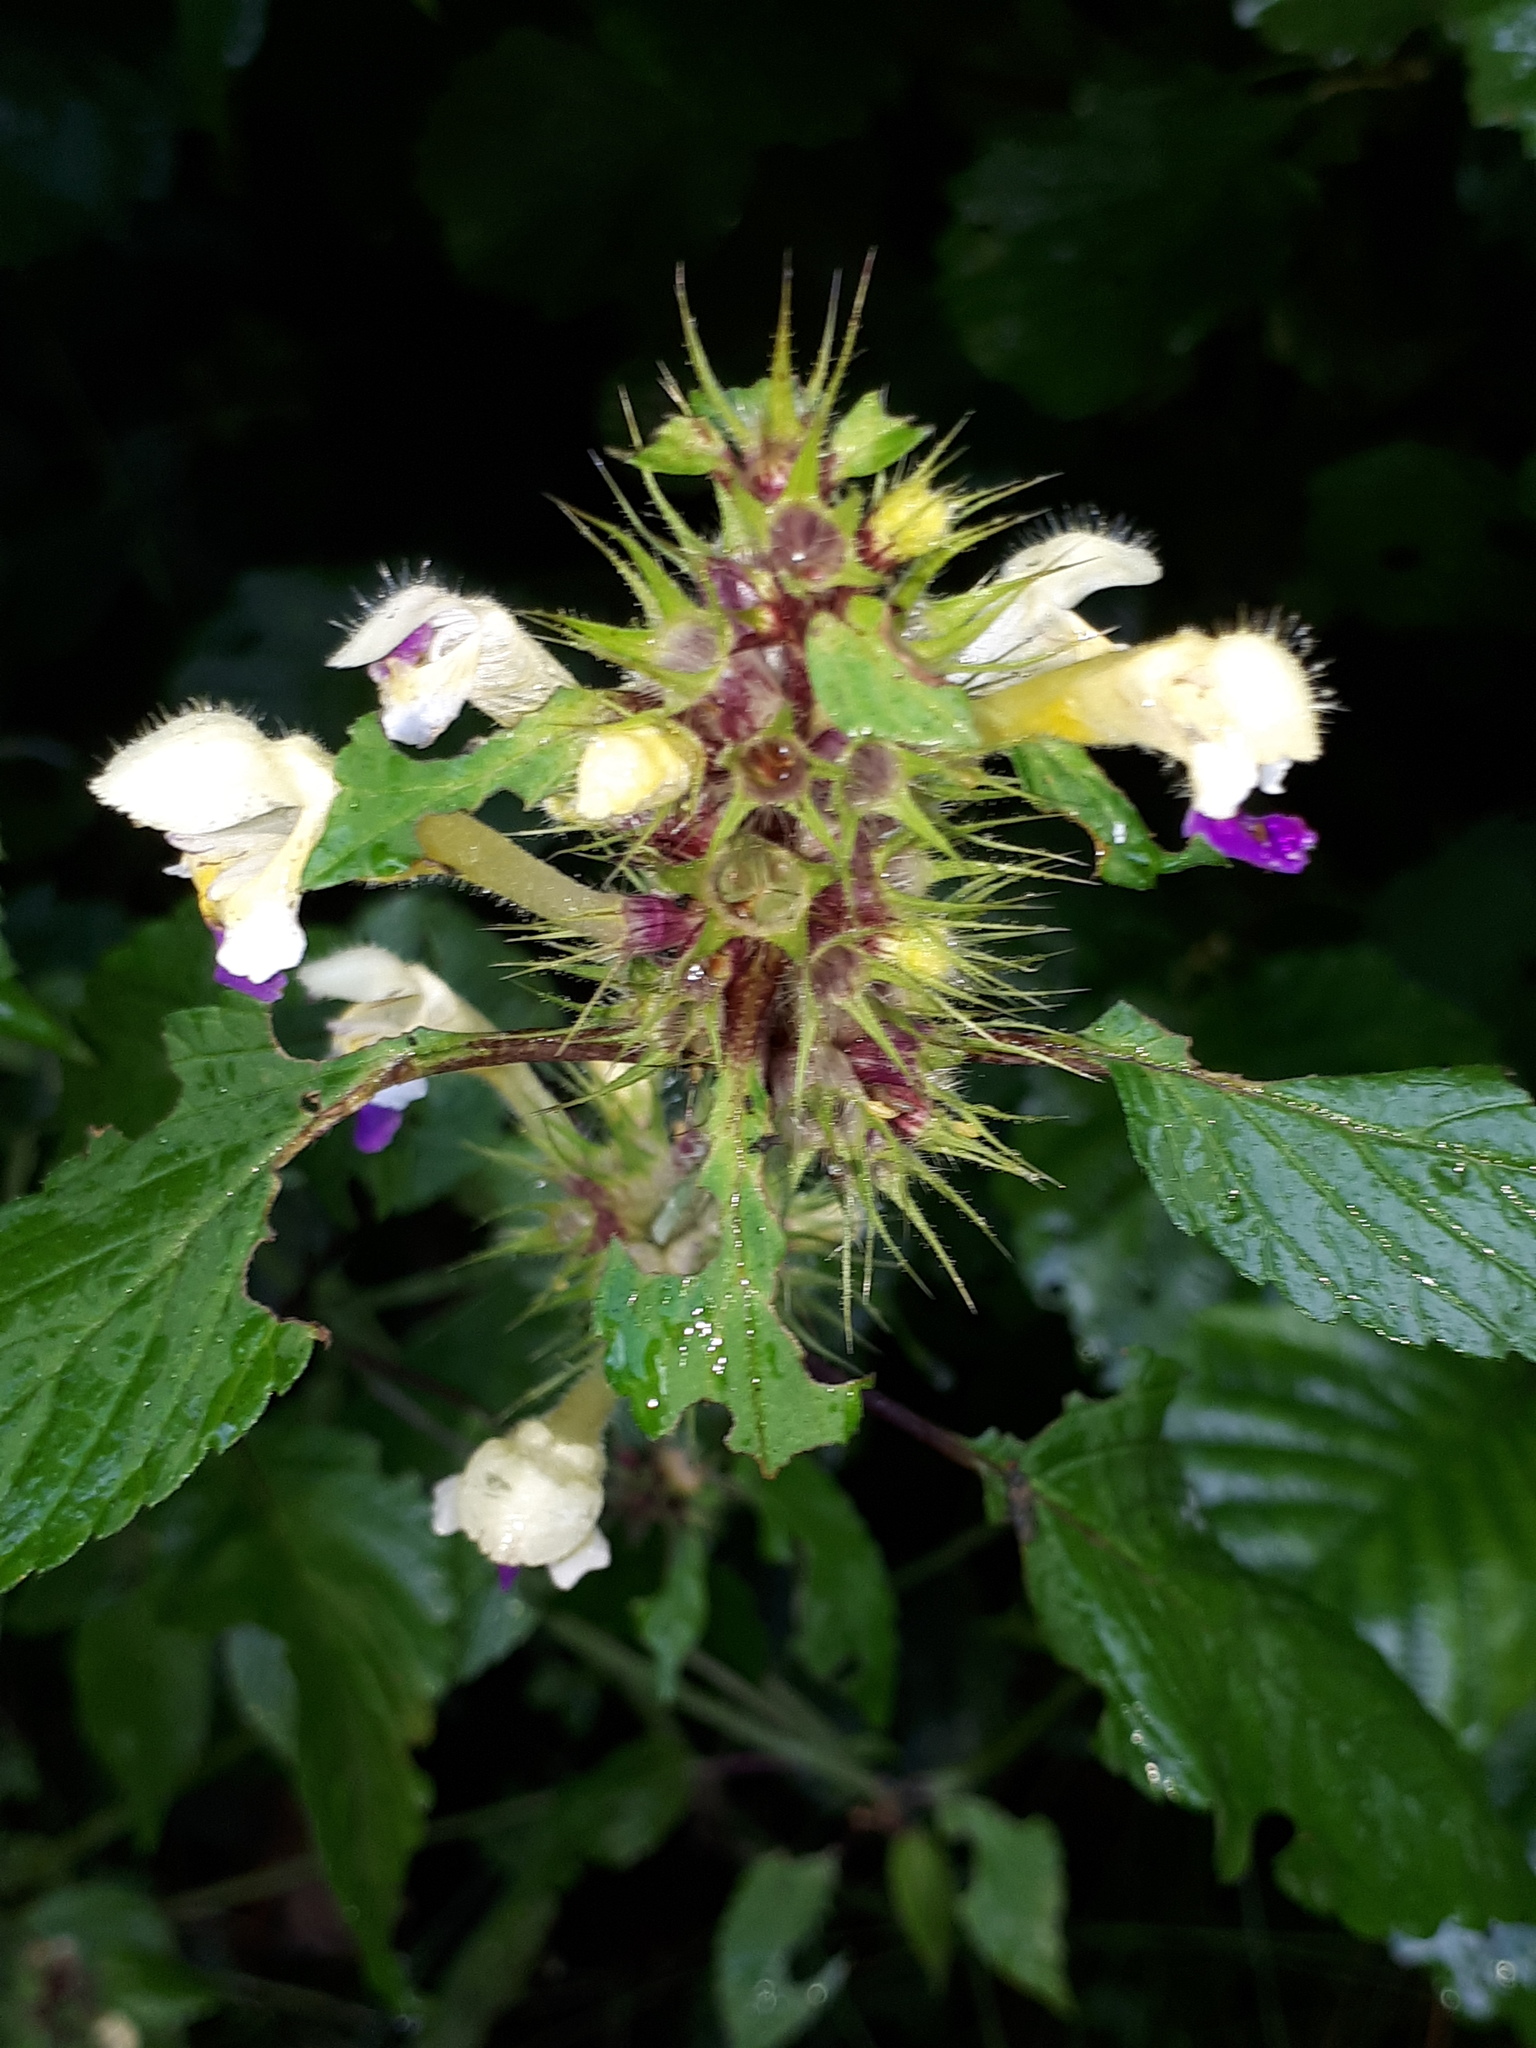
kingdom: Plantae
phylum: Tracheophyta
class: Magnoliopsida
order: Lamiales
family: Lamiaceae
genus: Galeopsis
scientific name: Galeopsis speciosa
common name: Large-flowered hemp-nettle
